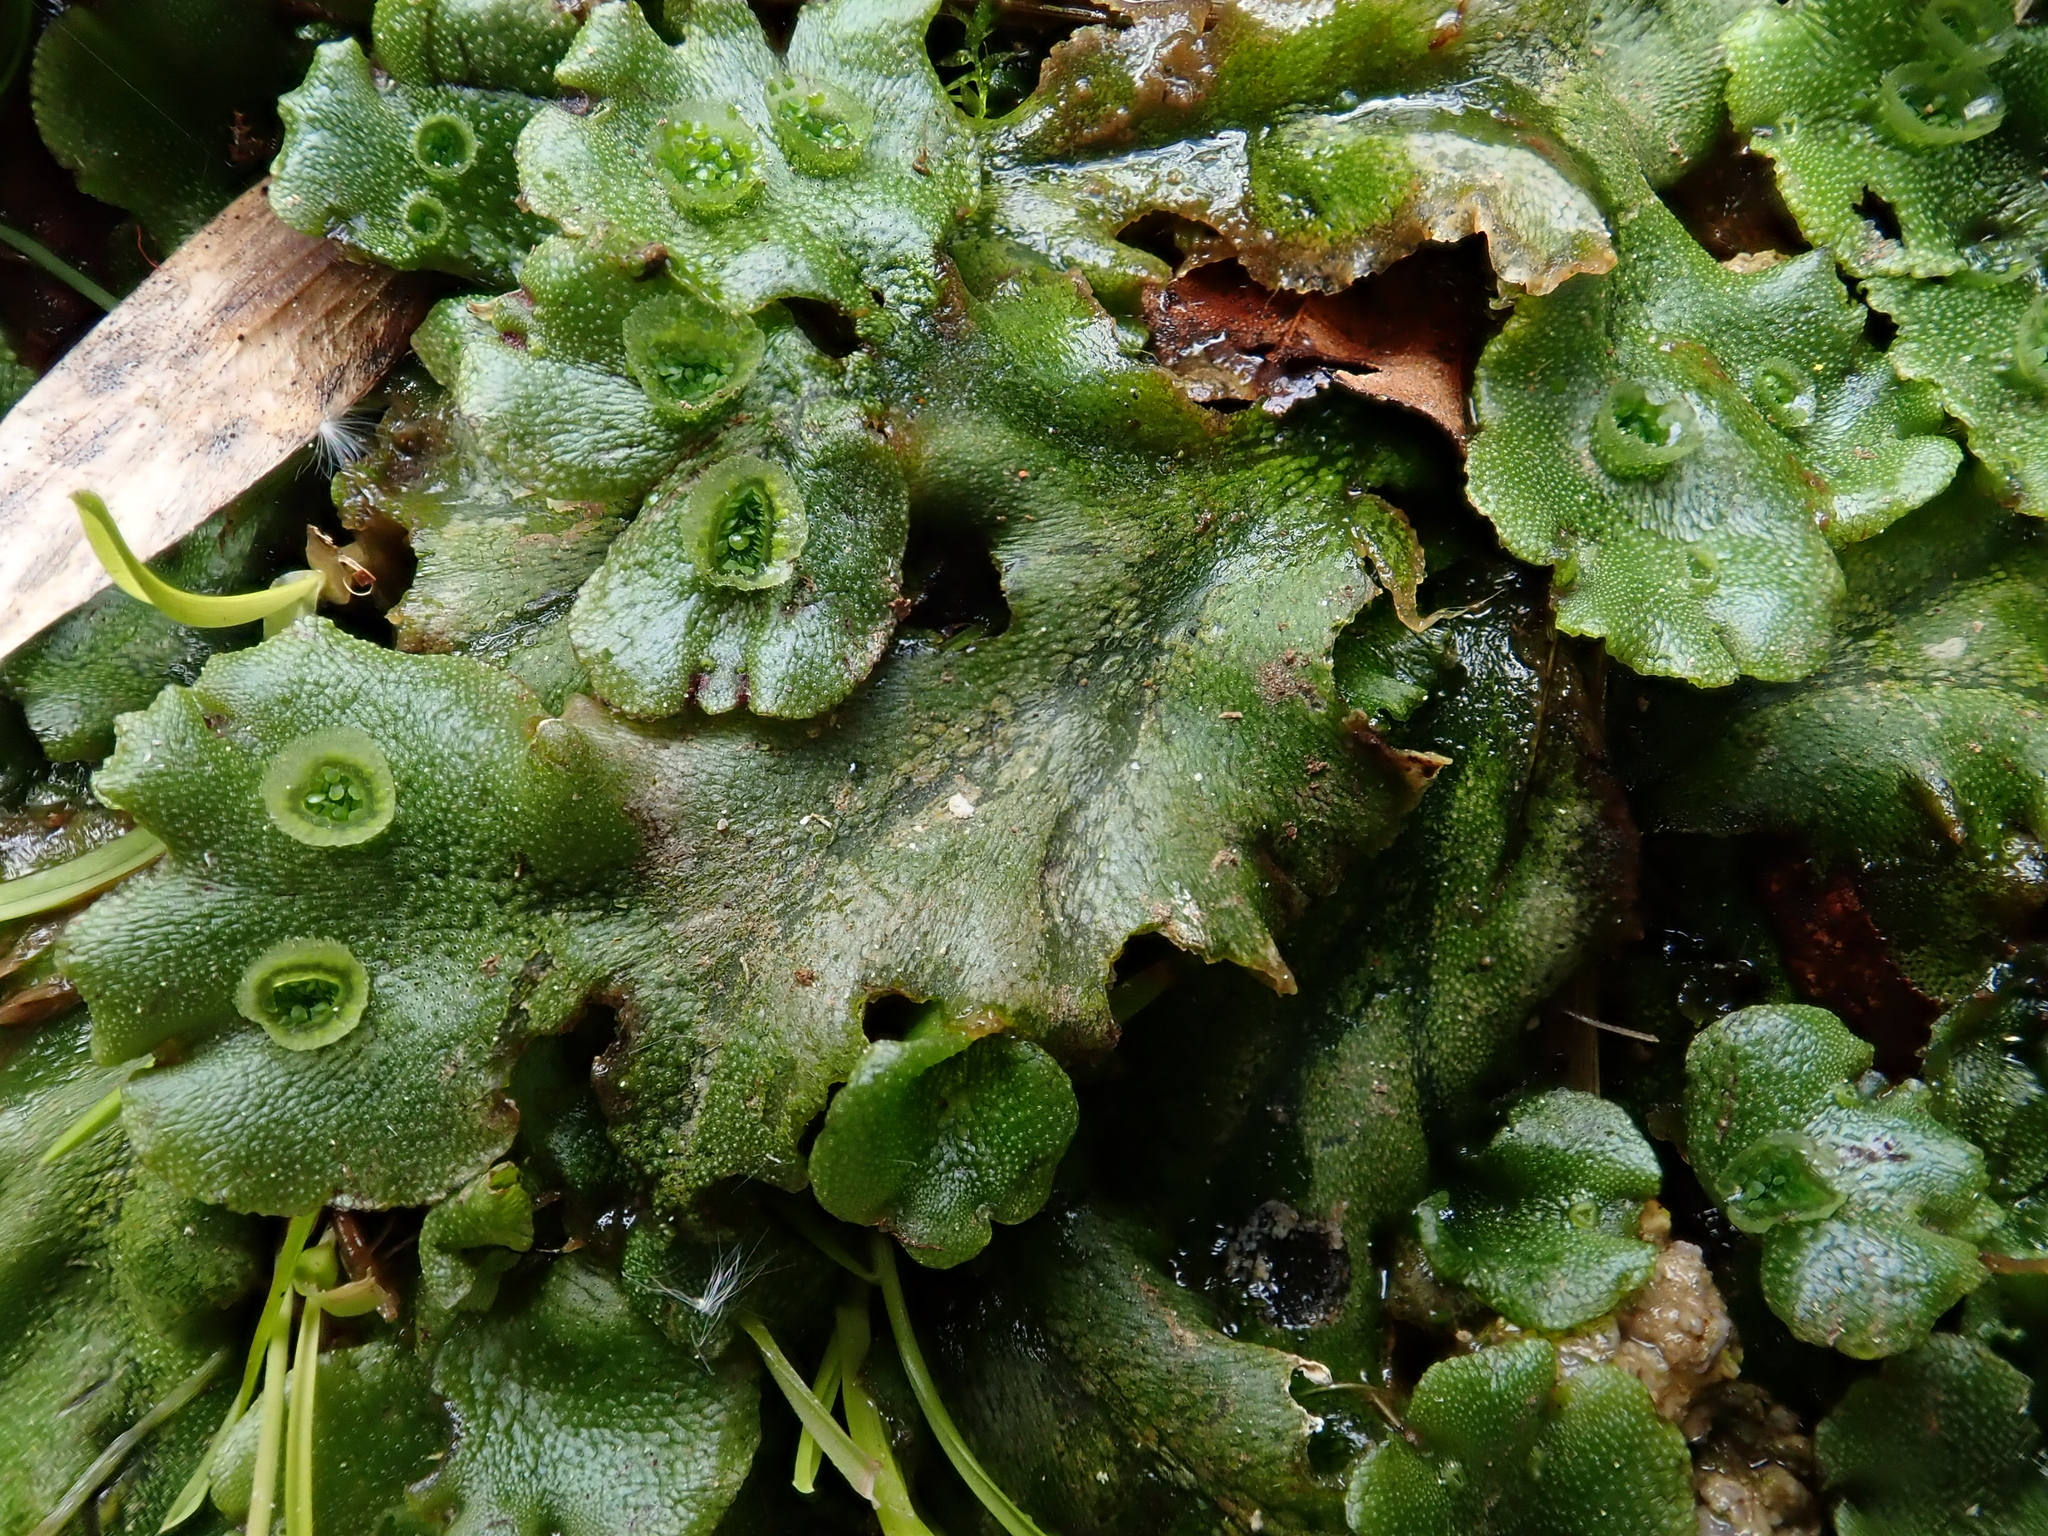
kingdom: Plantae
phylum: Marchantiophyta
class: Marchantiopsida
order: Marchantiales
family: Marchantiaceae
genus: Marchantia
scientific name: Marchantia polymorpha
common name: Common liverwort
